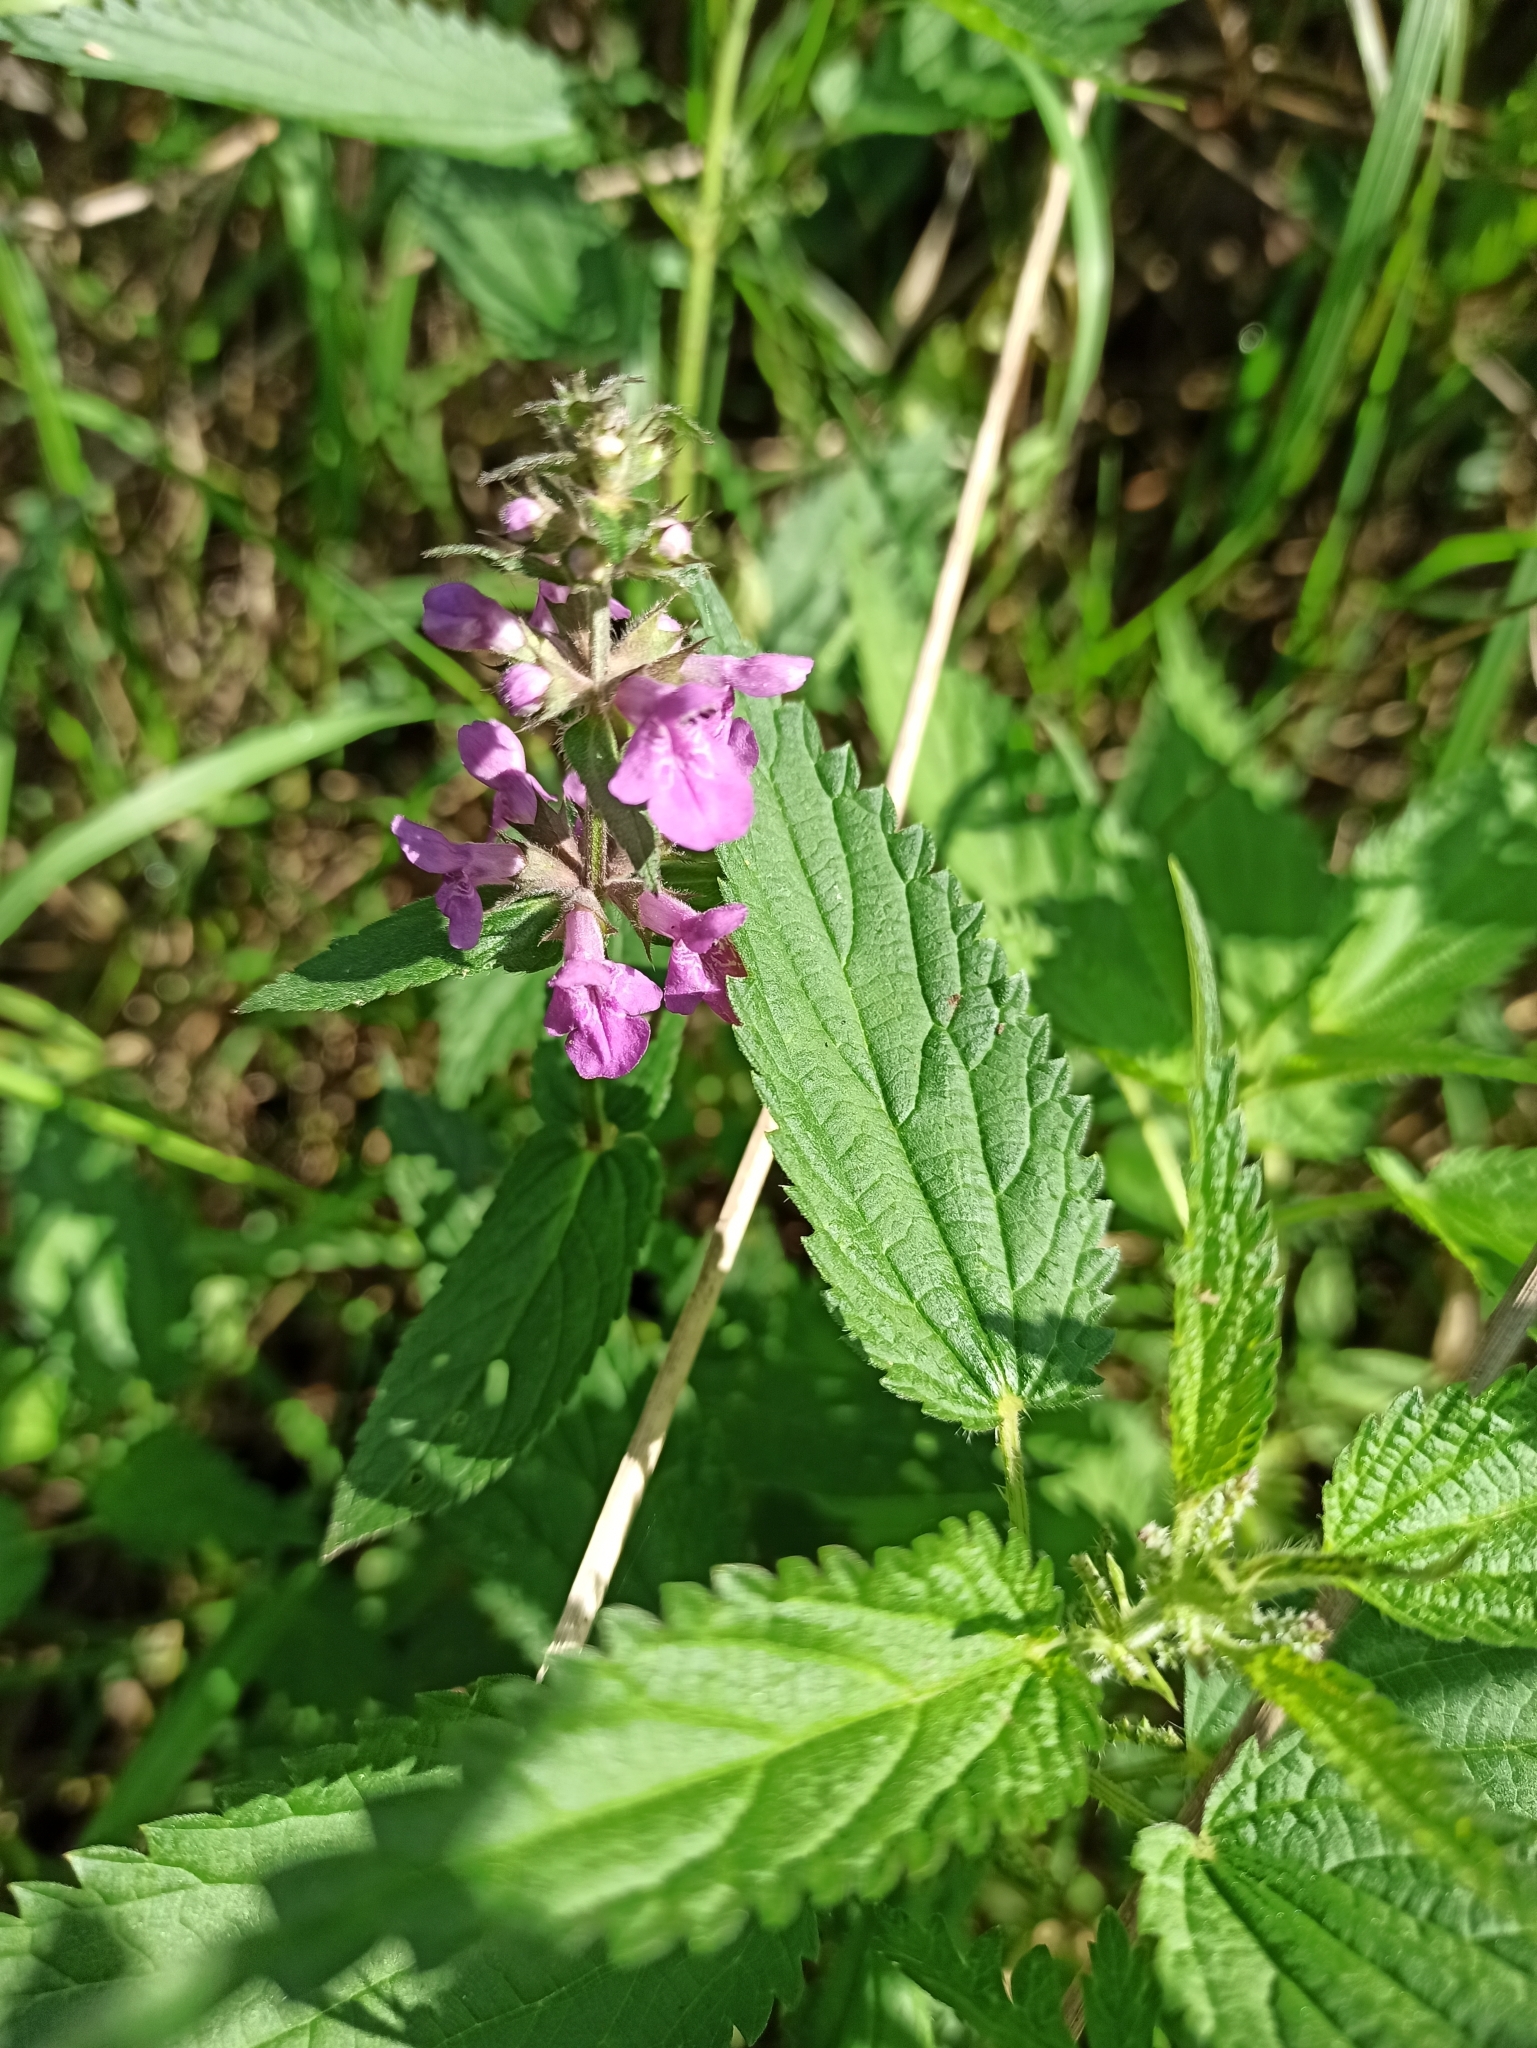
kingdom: Plantae
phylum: Tracheophyta
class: Magnoliopsida
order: Lamiales
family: Lamiaceae
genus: Stachys
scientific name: Stachys palustris
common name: Marsh woundwort
